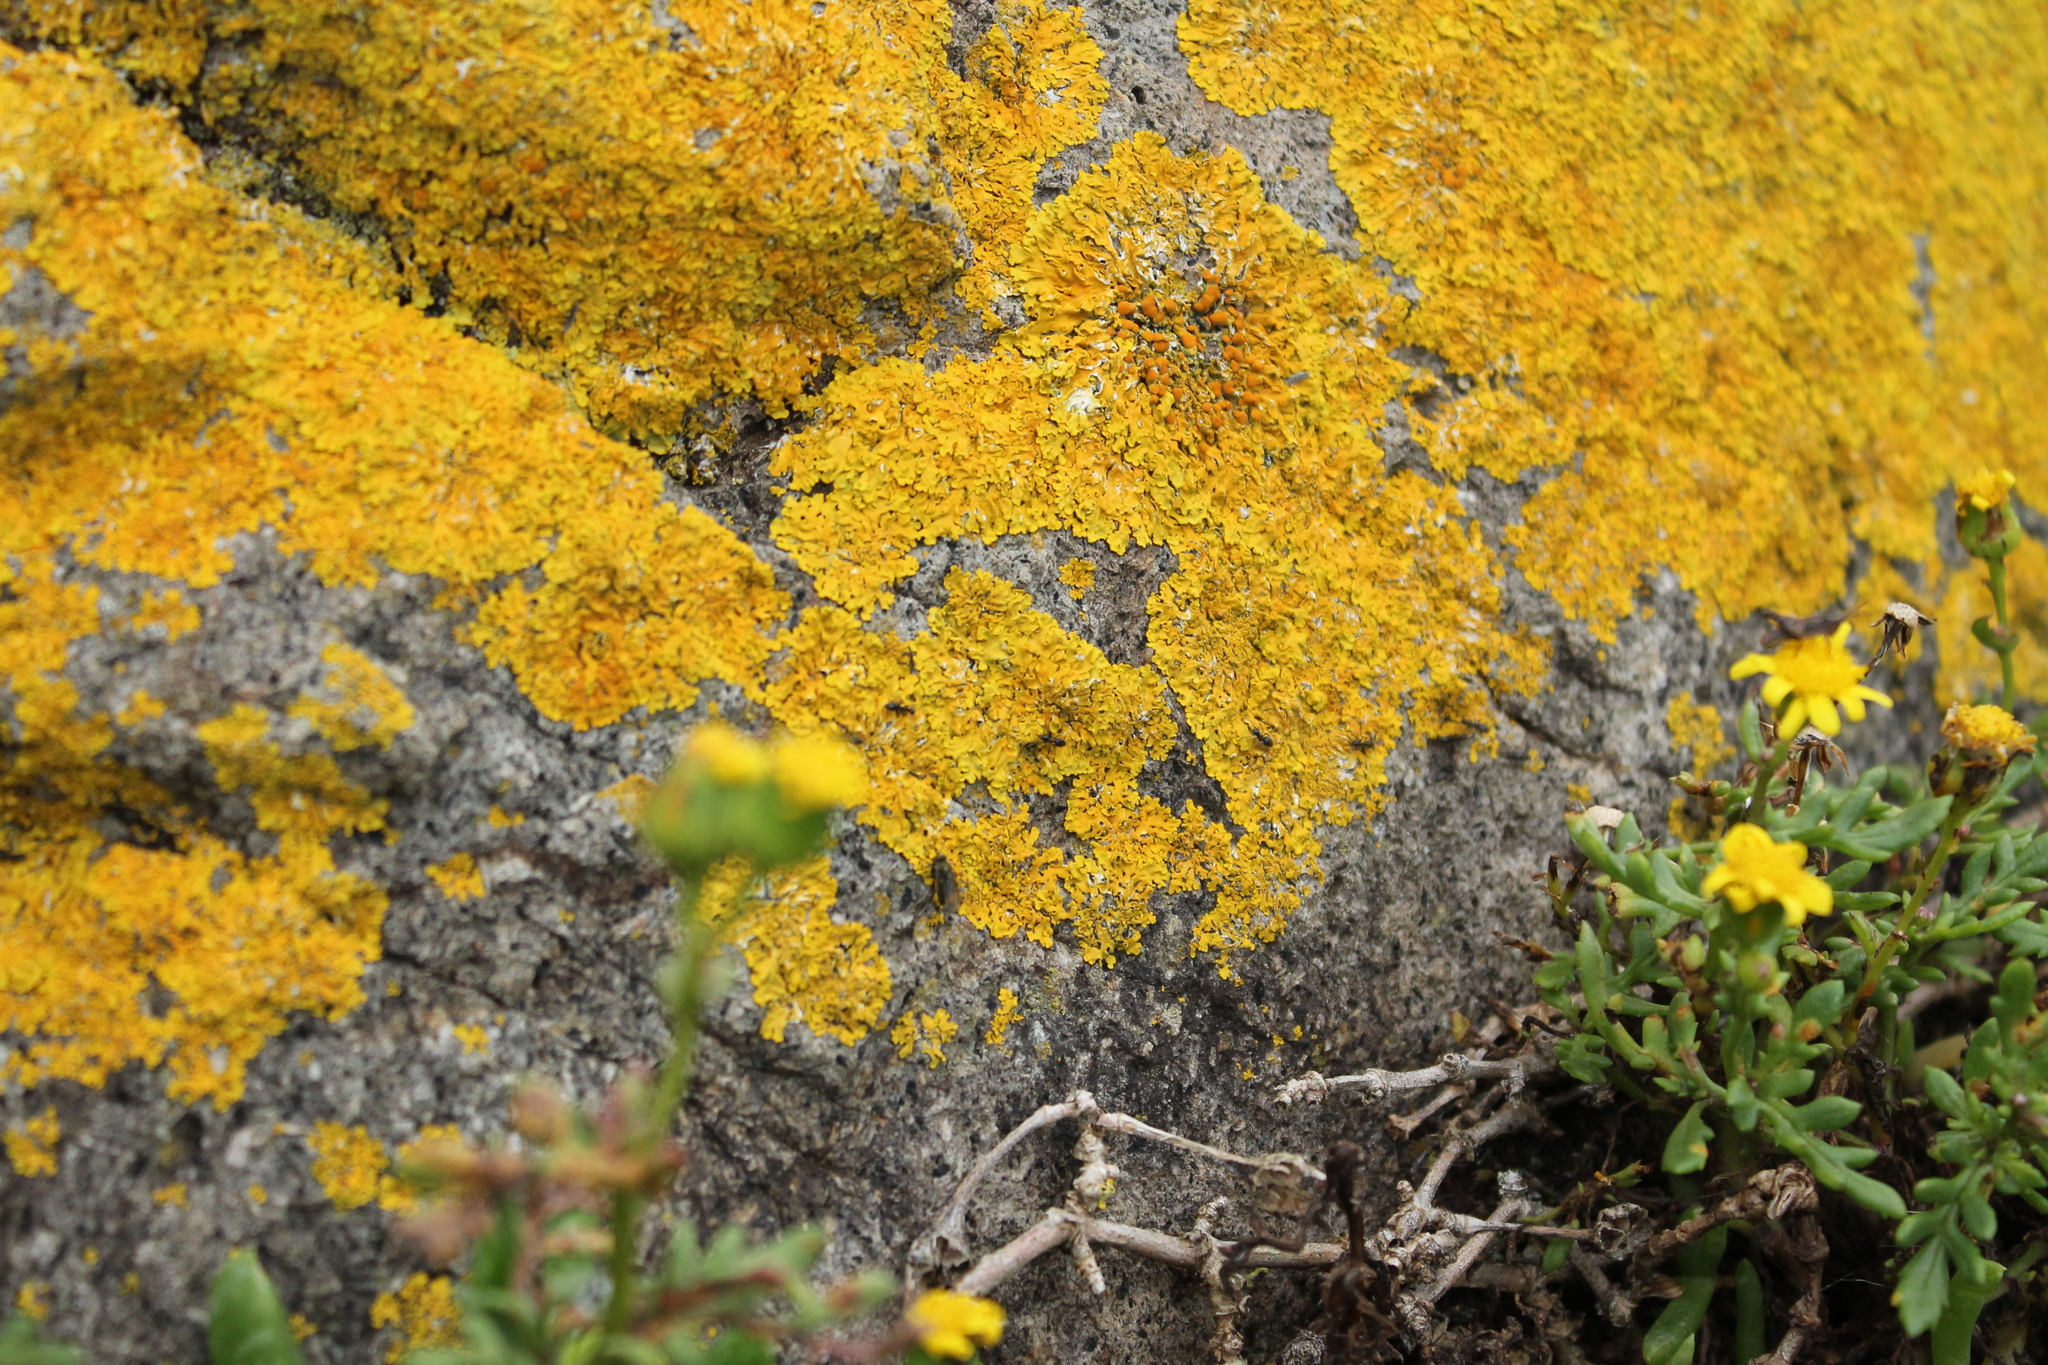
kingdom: Fungi
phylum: Ascomycota
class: Lecanoromycetes
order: Teloschistales
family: Teloschistaceae
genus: Xanthoria
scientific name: Xanthoria parietina
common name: Common orange lichen
